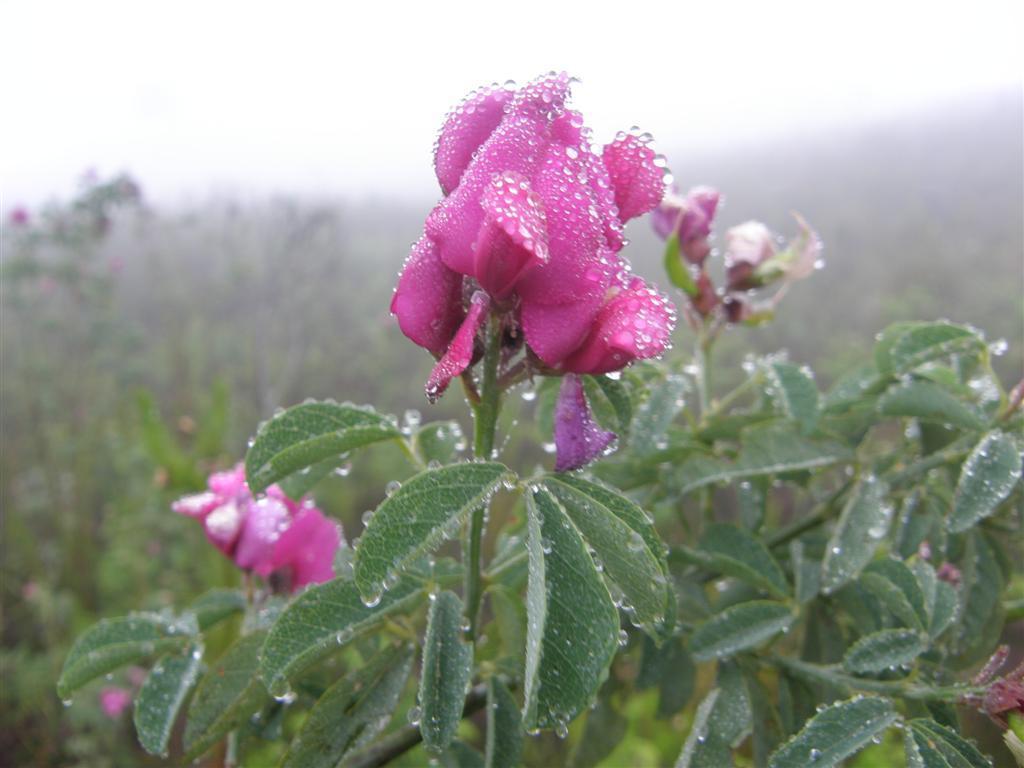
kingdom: Plantae
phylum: Tracheophyta
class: Magnoliopsida
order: Fabales
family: Fabaceae
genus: Hypocalyptus
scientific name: Hypocalyptus coluteoides
